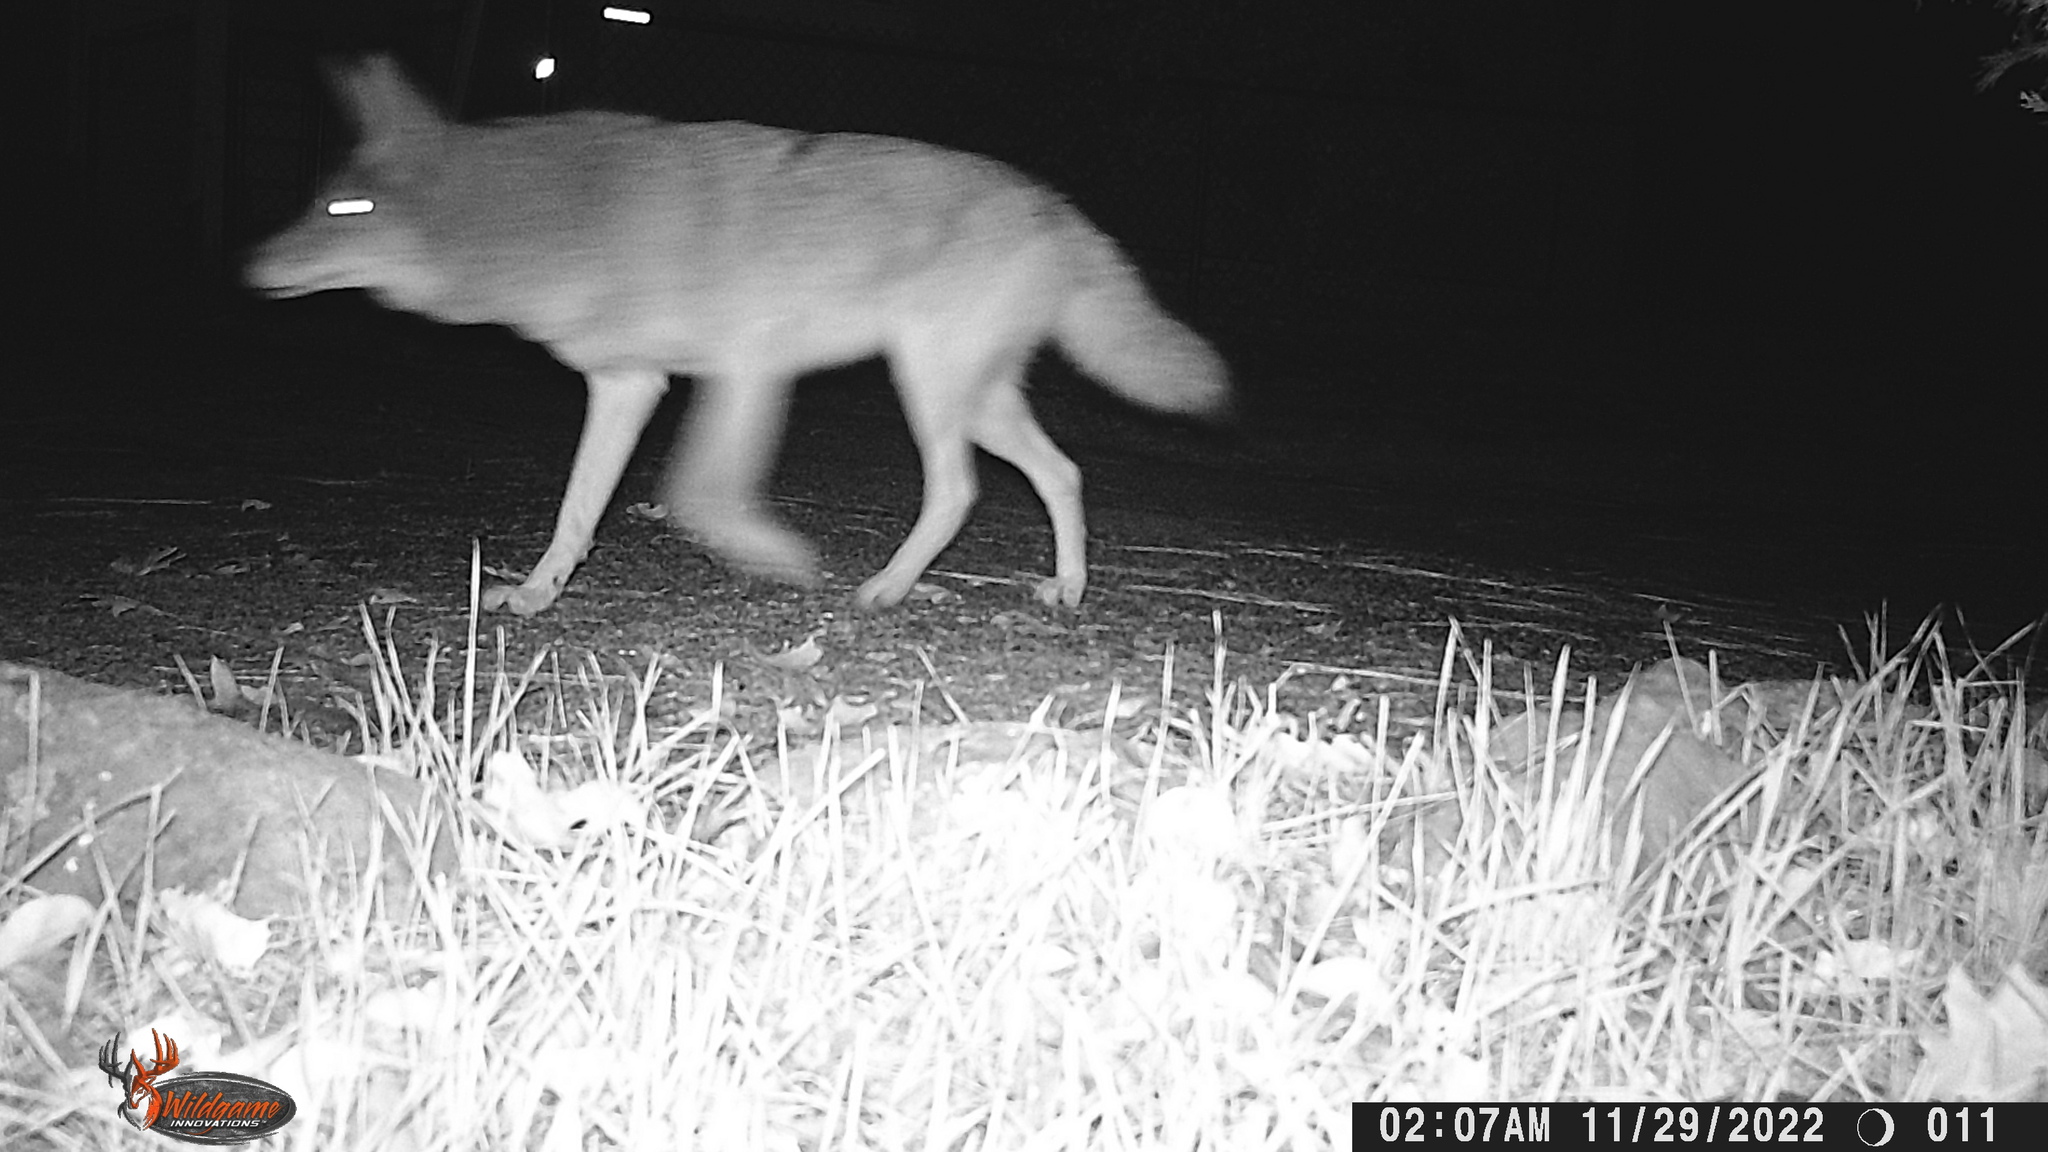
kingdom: Animalia
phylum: Chordata
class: Mammalia
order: Carnivora
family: Canidae
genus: Canis
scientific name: Canis latrans
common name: Coyote
